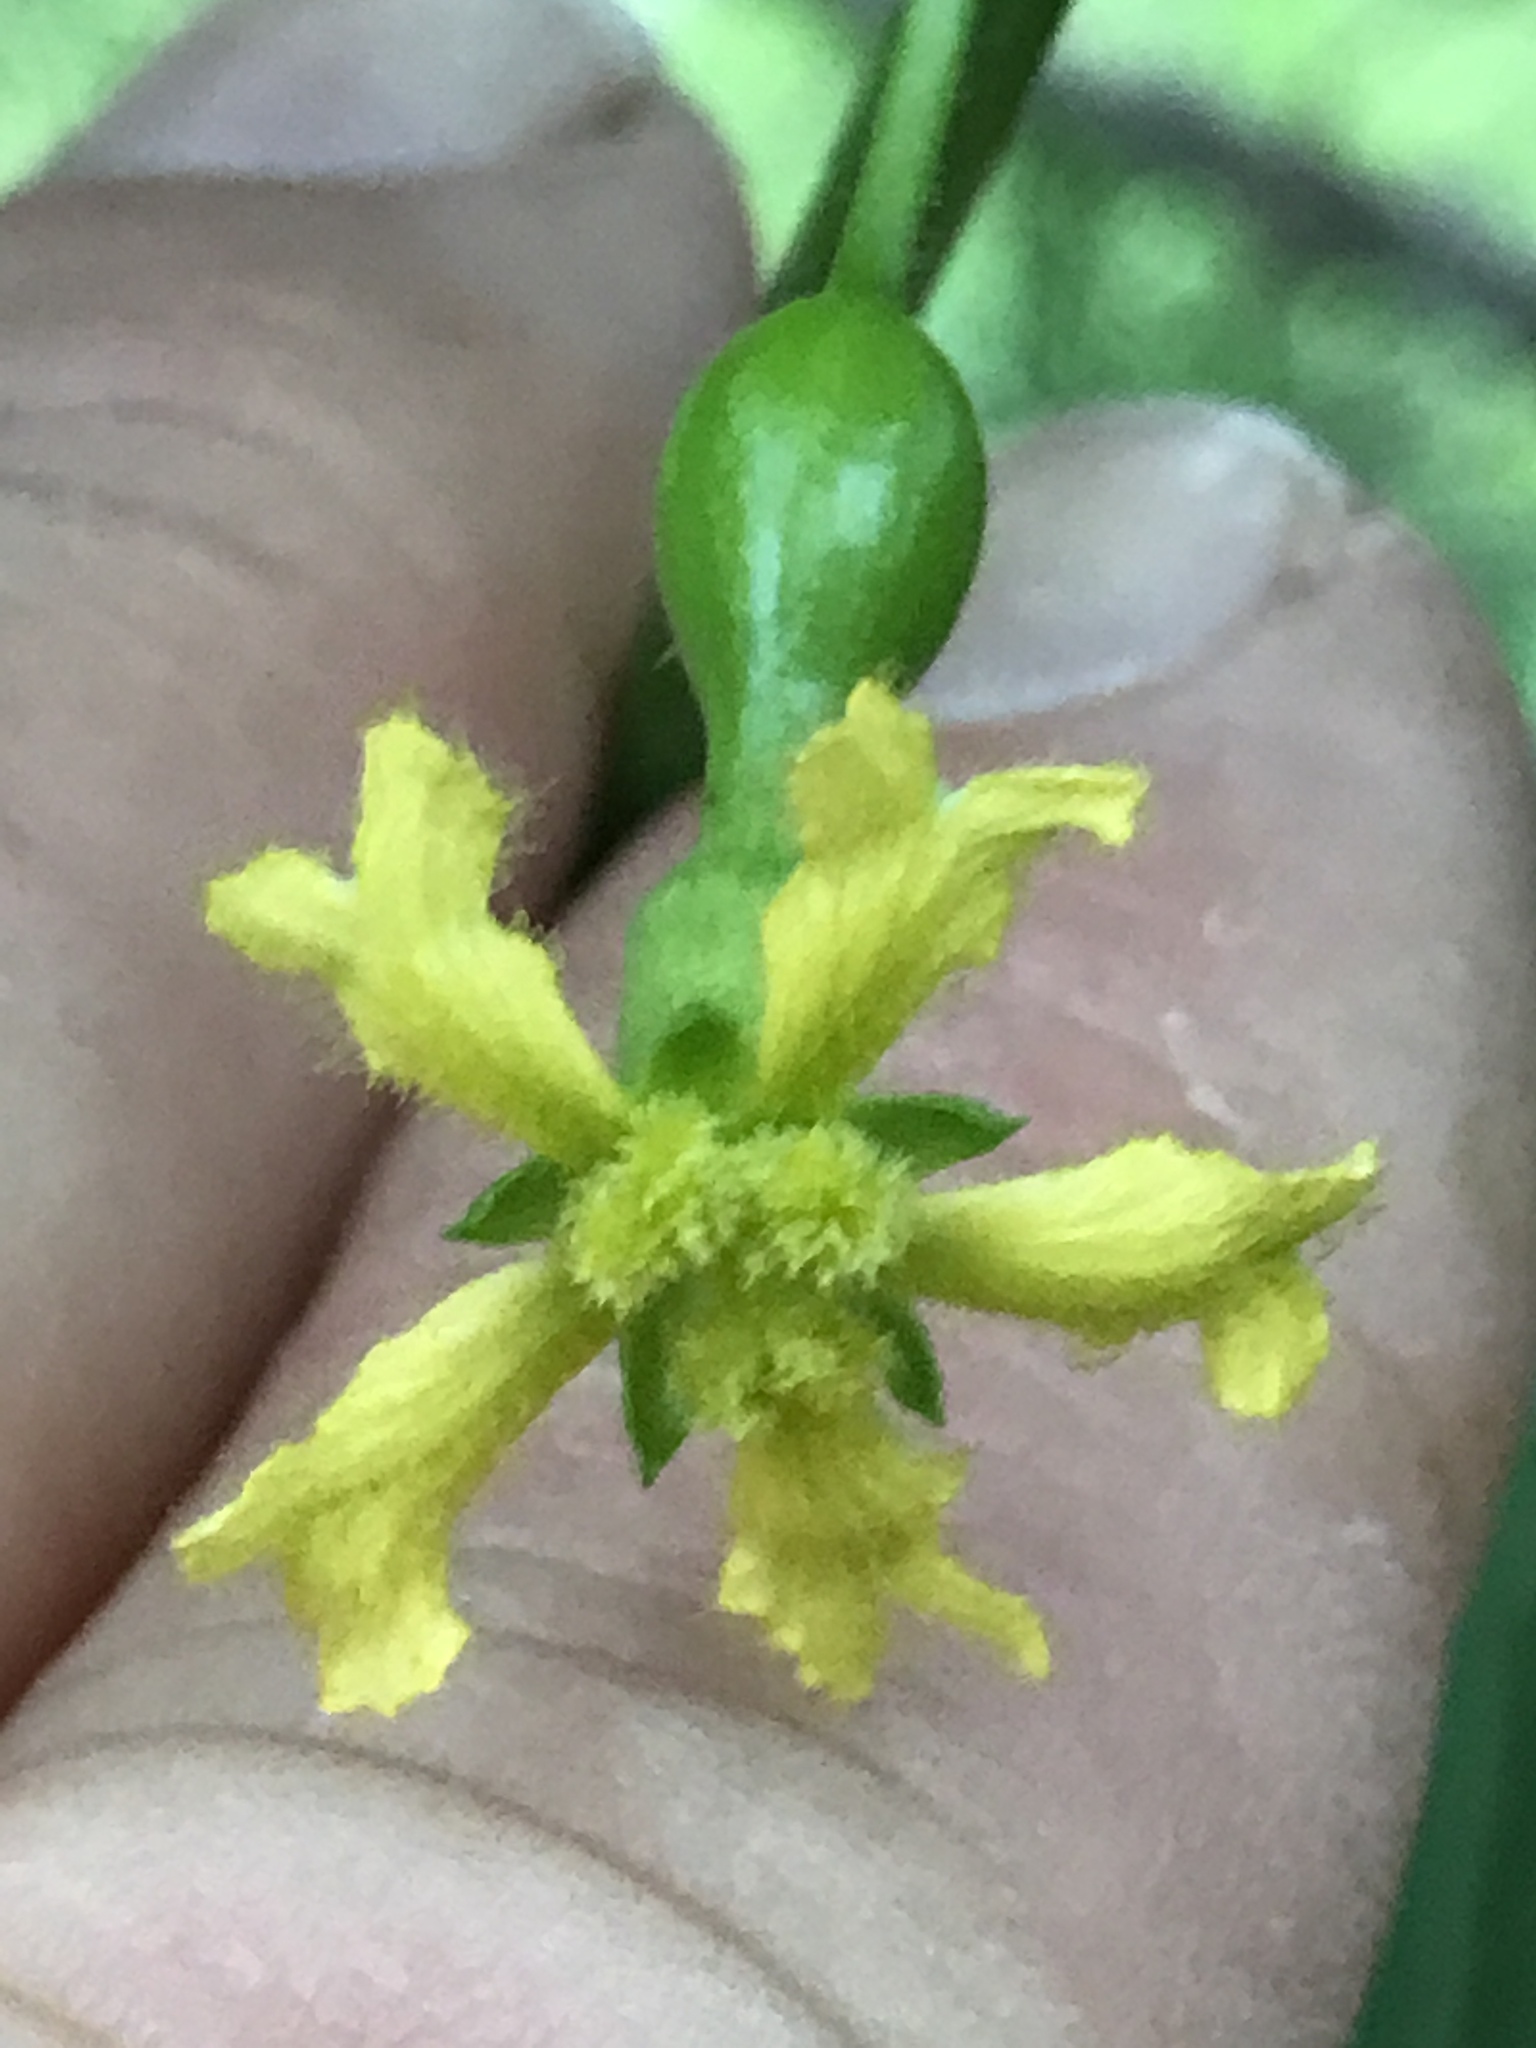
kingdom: Plantae
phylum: Tracheophyta
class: Magnoliopsida
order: Cucurbitales
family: Cucurbitaceae
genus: Ibervillea
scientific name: Ibervillea lindheimeri
